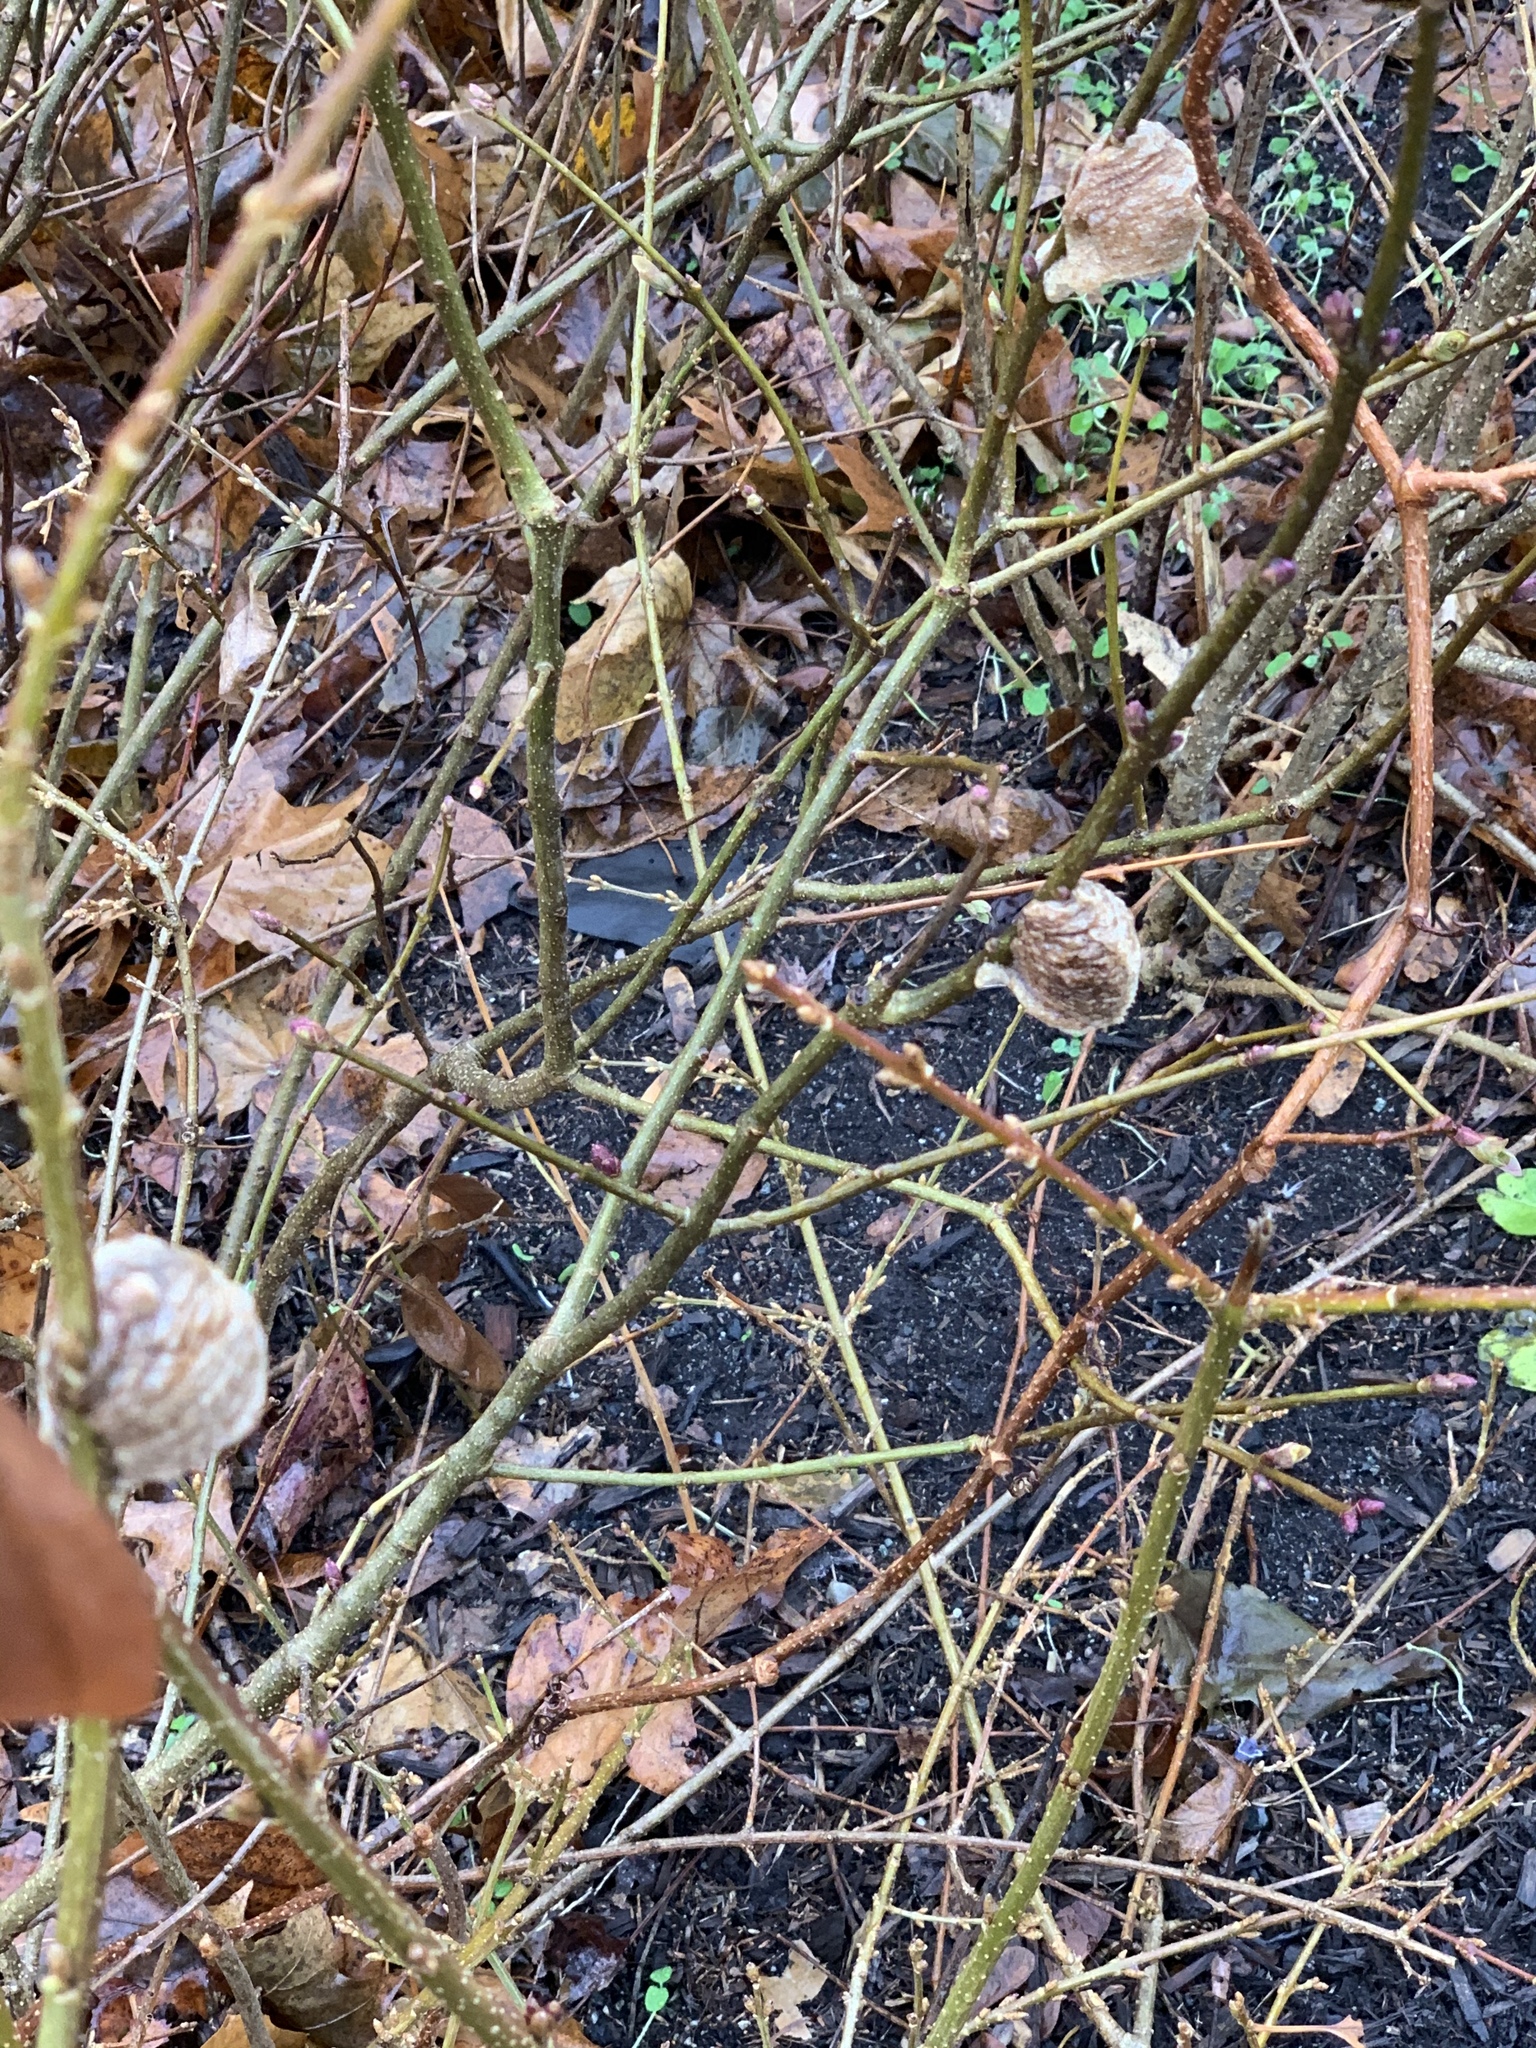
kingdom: Animalia
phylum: Arthropoda
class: Insecta
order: Mantodea
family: Mantidae
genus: Tenodera
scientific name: Tenodera sinensis
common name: Chinese mantis
